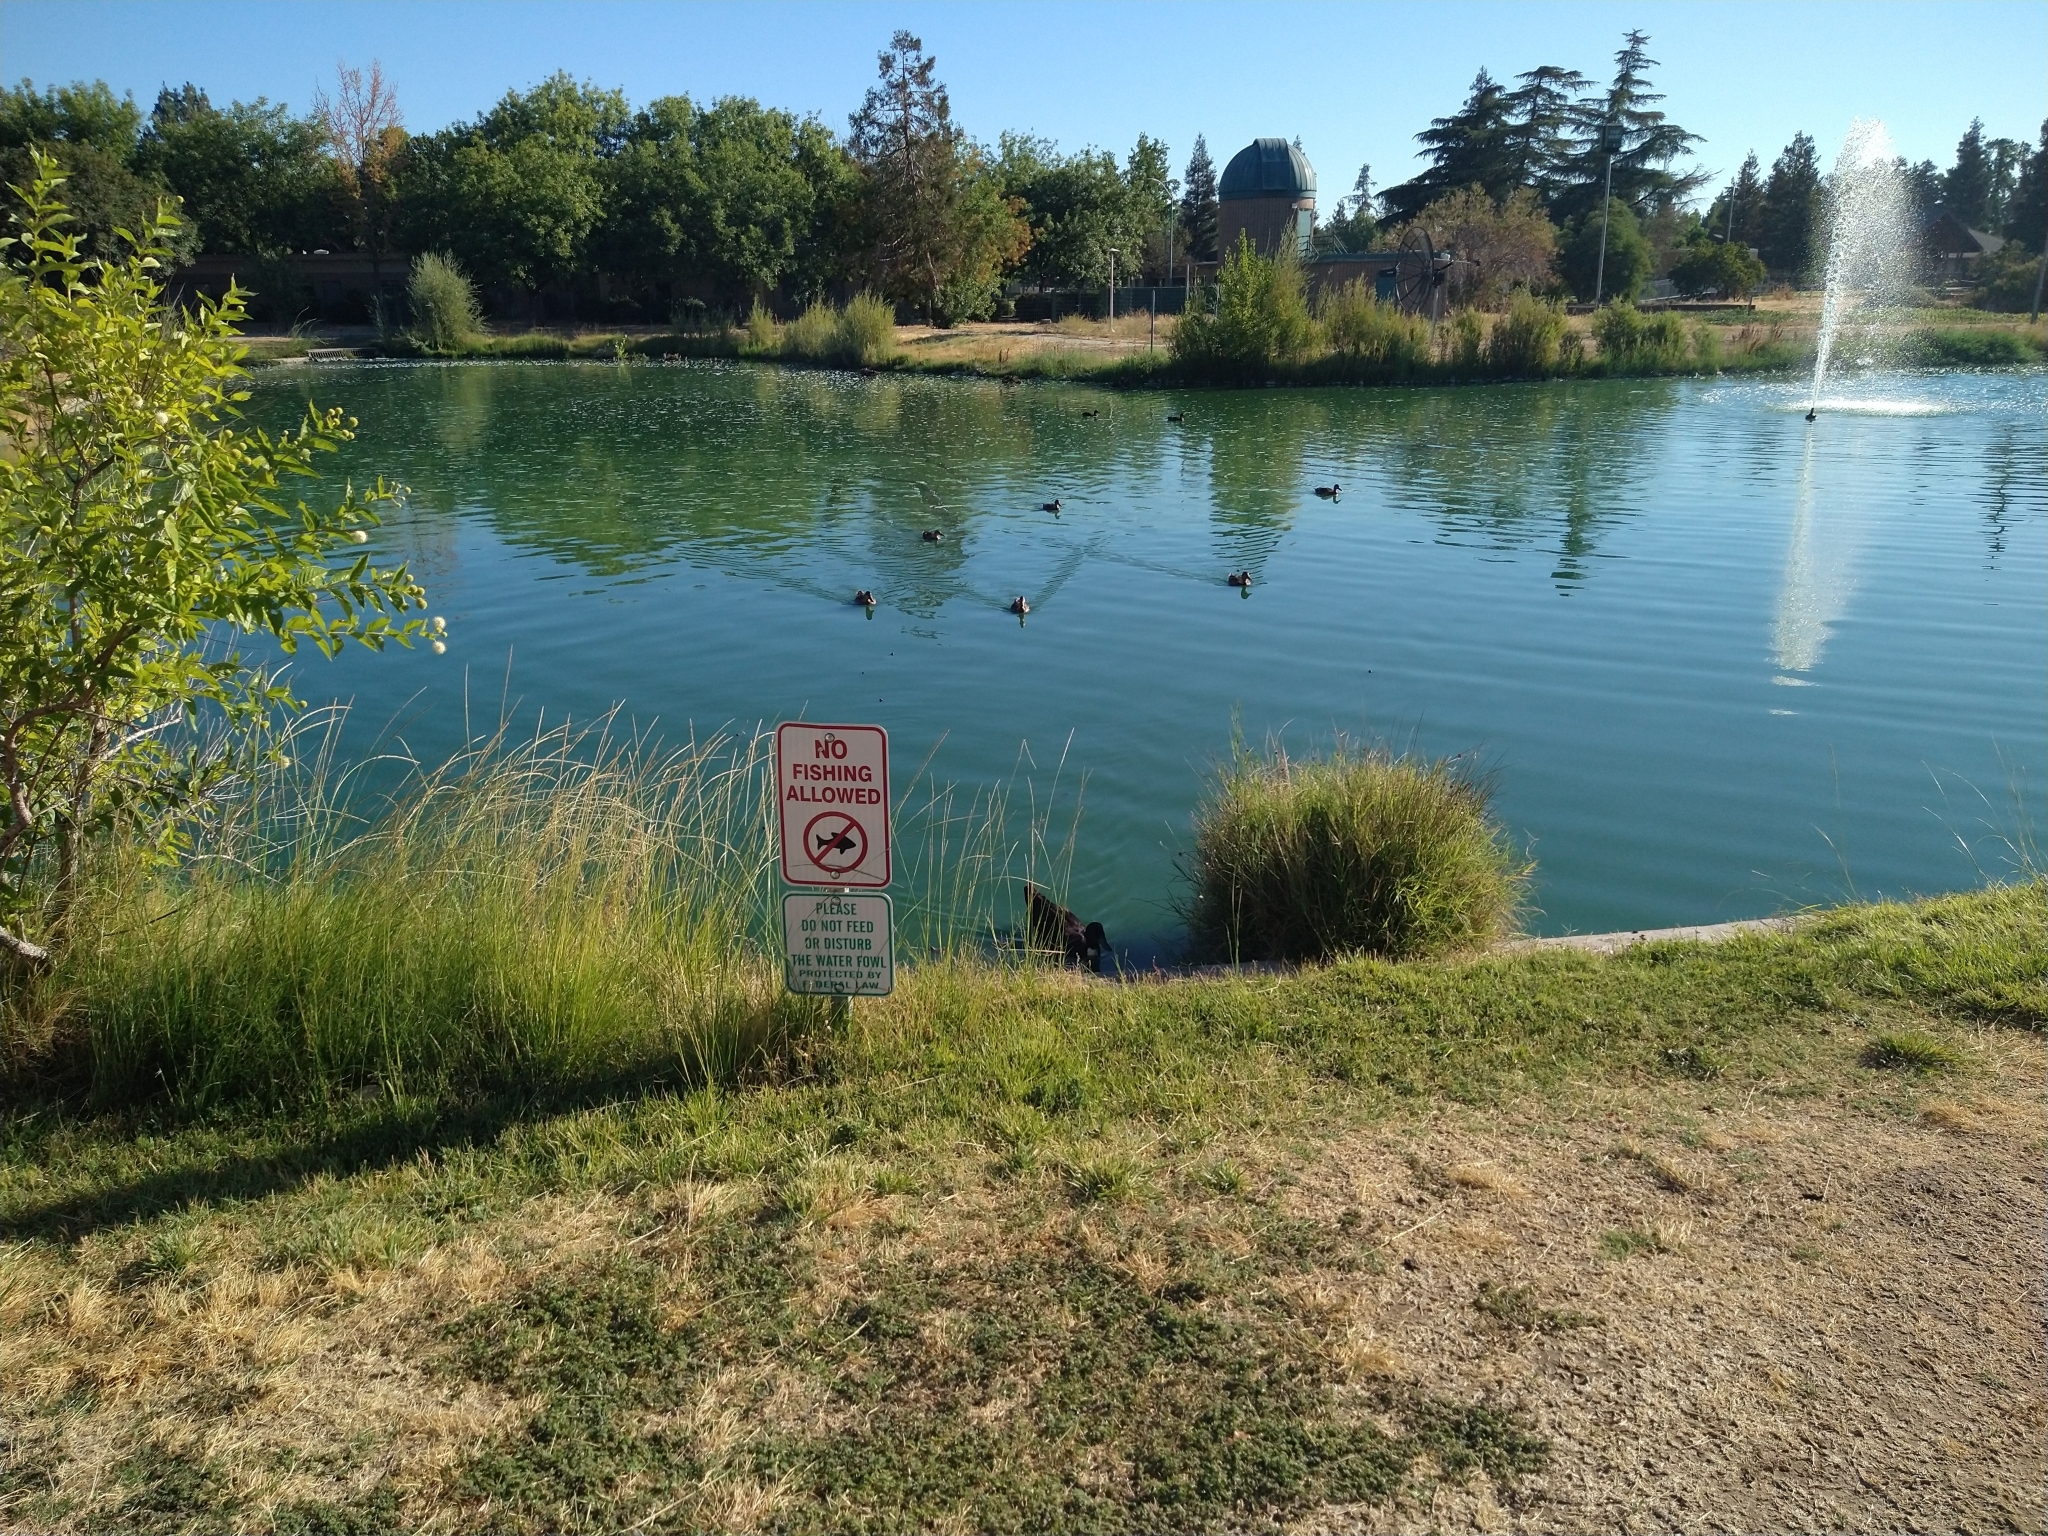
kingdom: Animalia
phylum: Chordata
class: Aves
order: Anseriformes
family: Anatidae
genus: Anas
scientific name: Anas platyrhynchos
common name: Mallard
